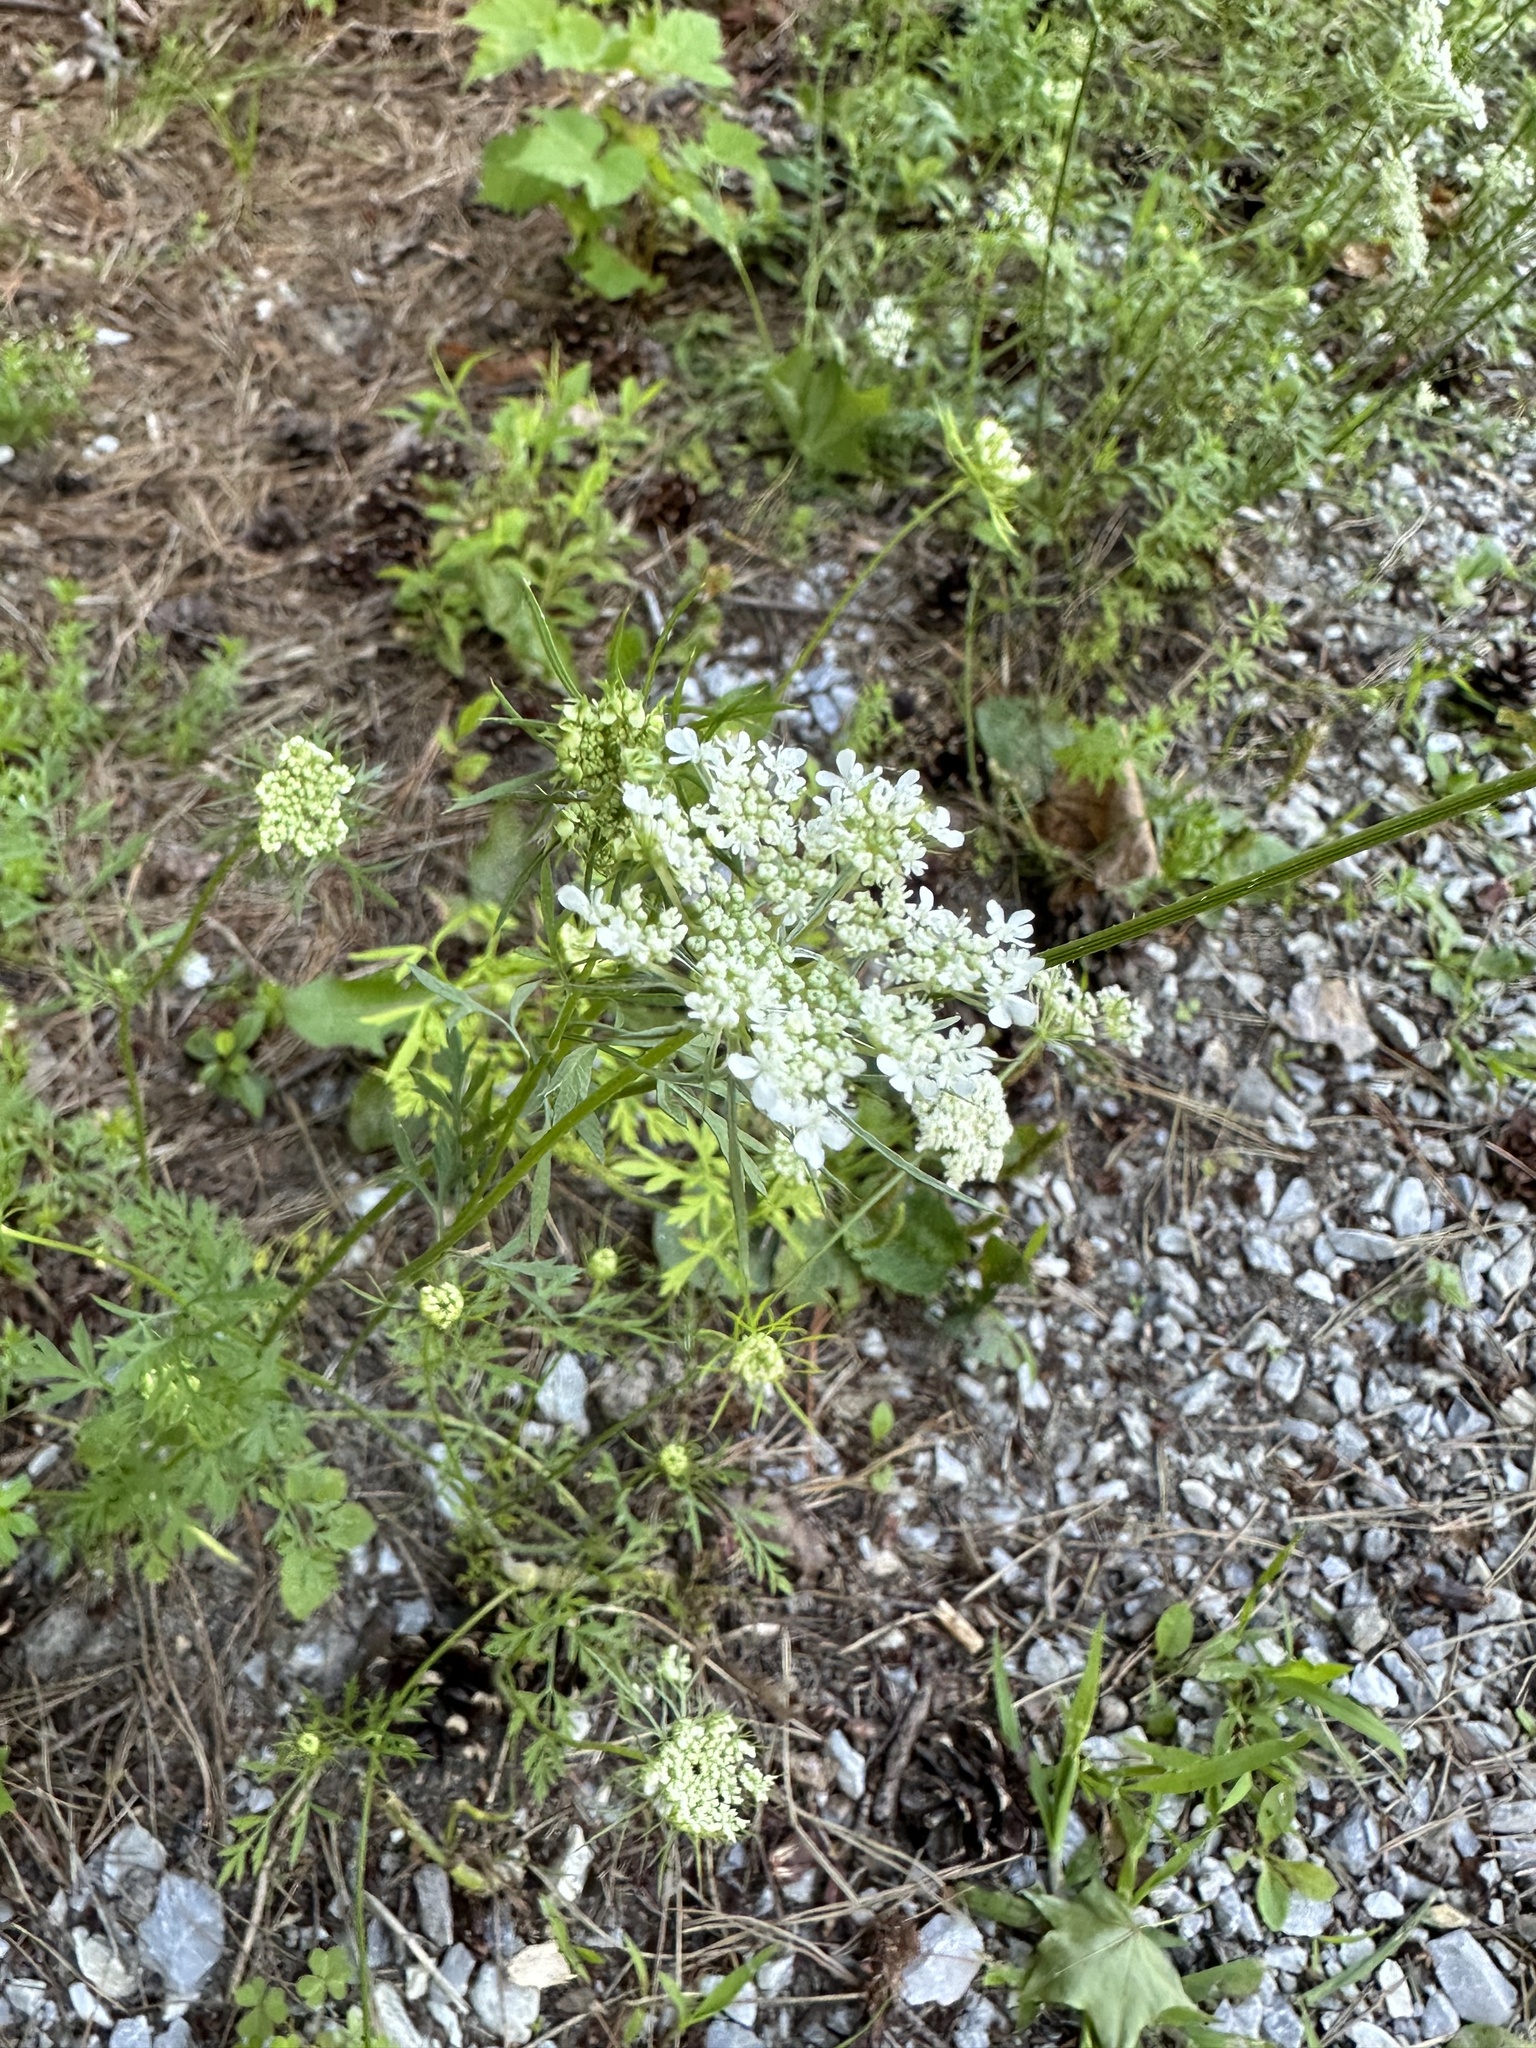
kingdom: Plantae
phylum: Tracheophyta
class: Magnoliopsida
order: Apiales
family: Apiaceae
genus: Daucus
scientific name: Daucus carota
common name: Wild carrot
